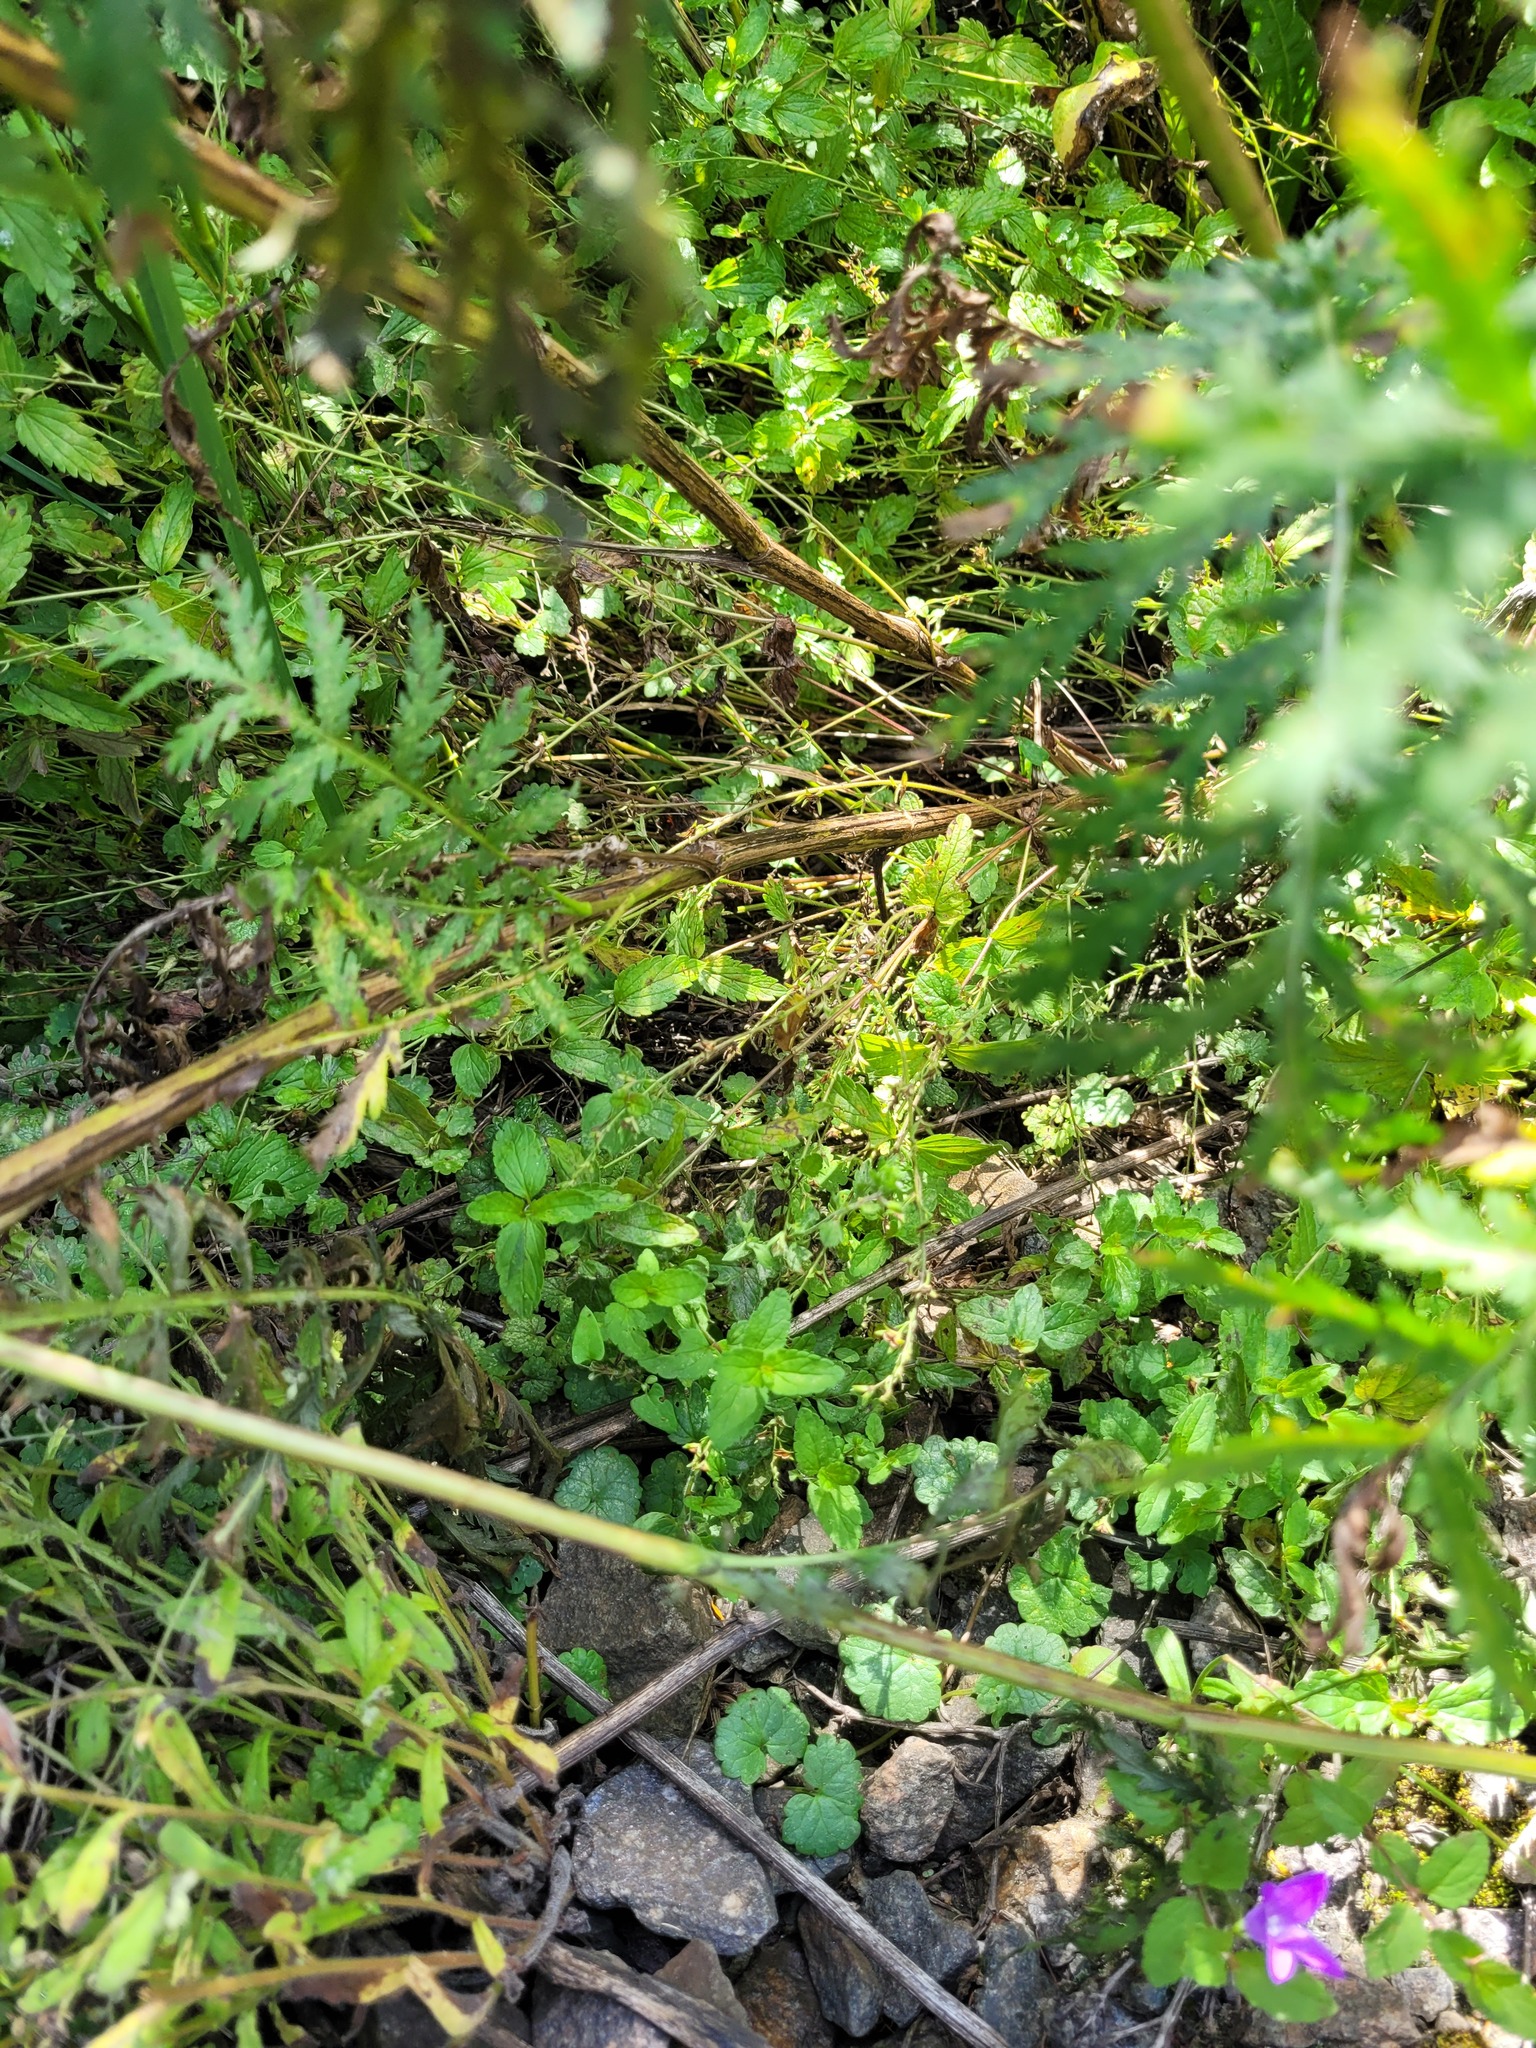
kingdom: Plantae
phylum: Tracheophyta
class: Magnoliopsida
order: Lamiales
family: Plantaginaceae
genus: Veronica
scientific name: Veronica chamaedrys
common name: Germander speedwell
